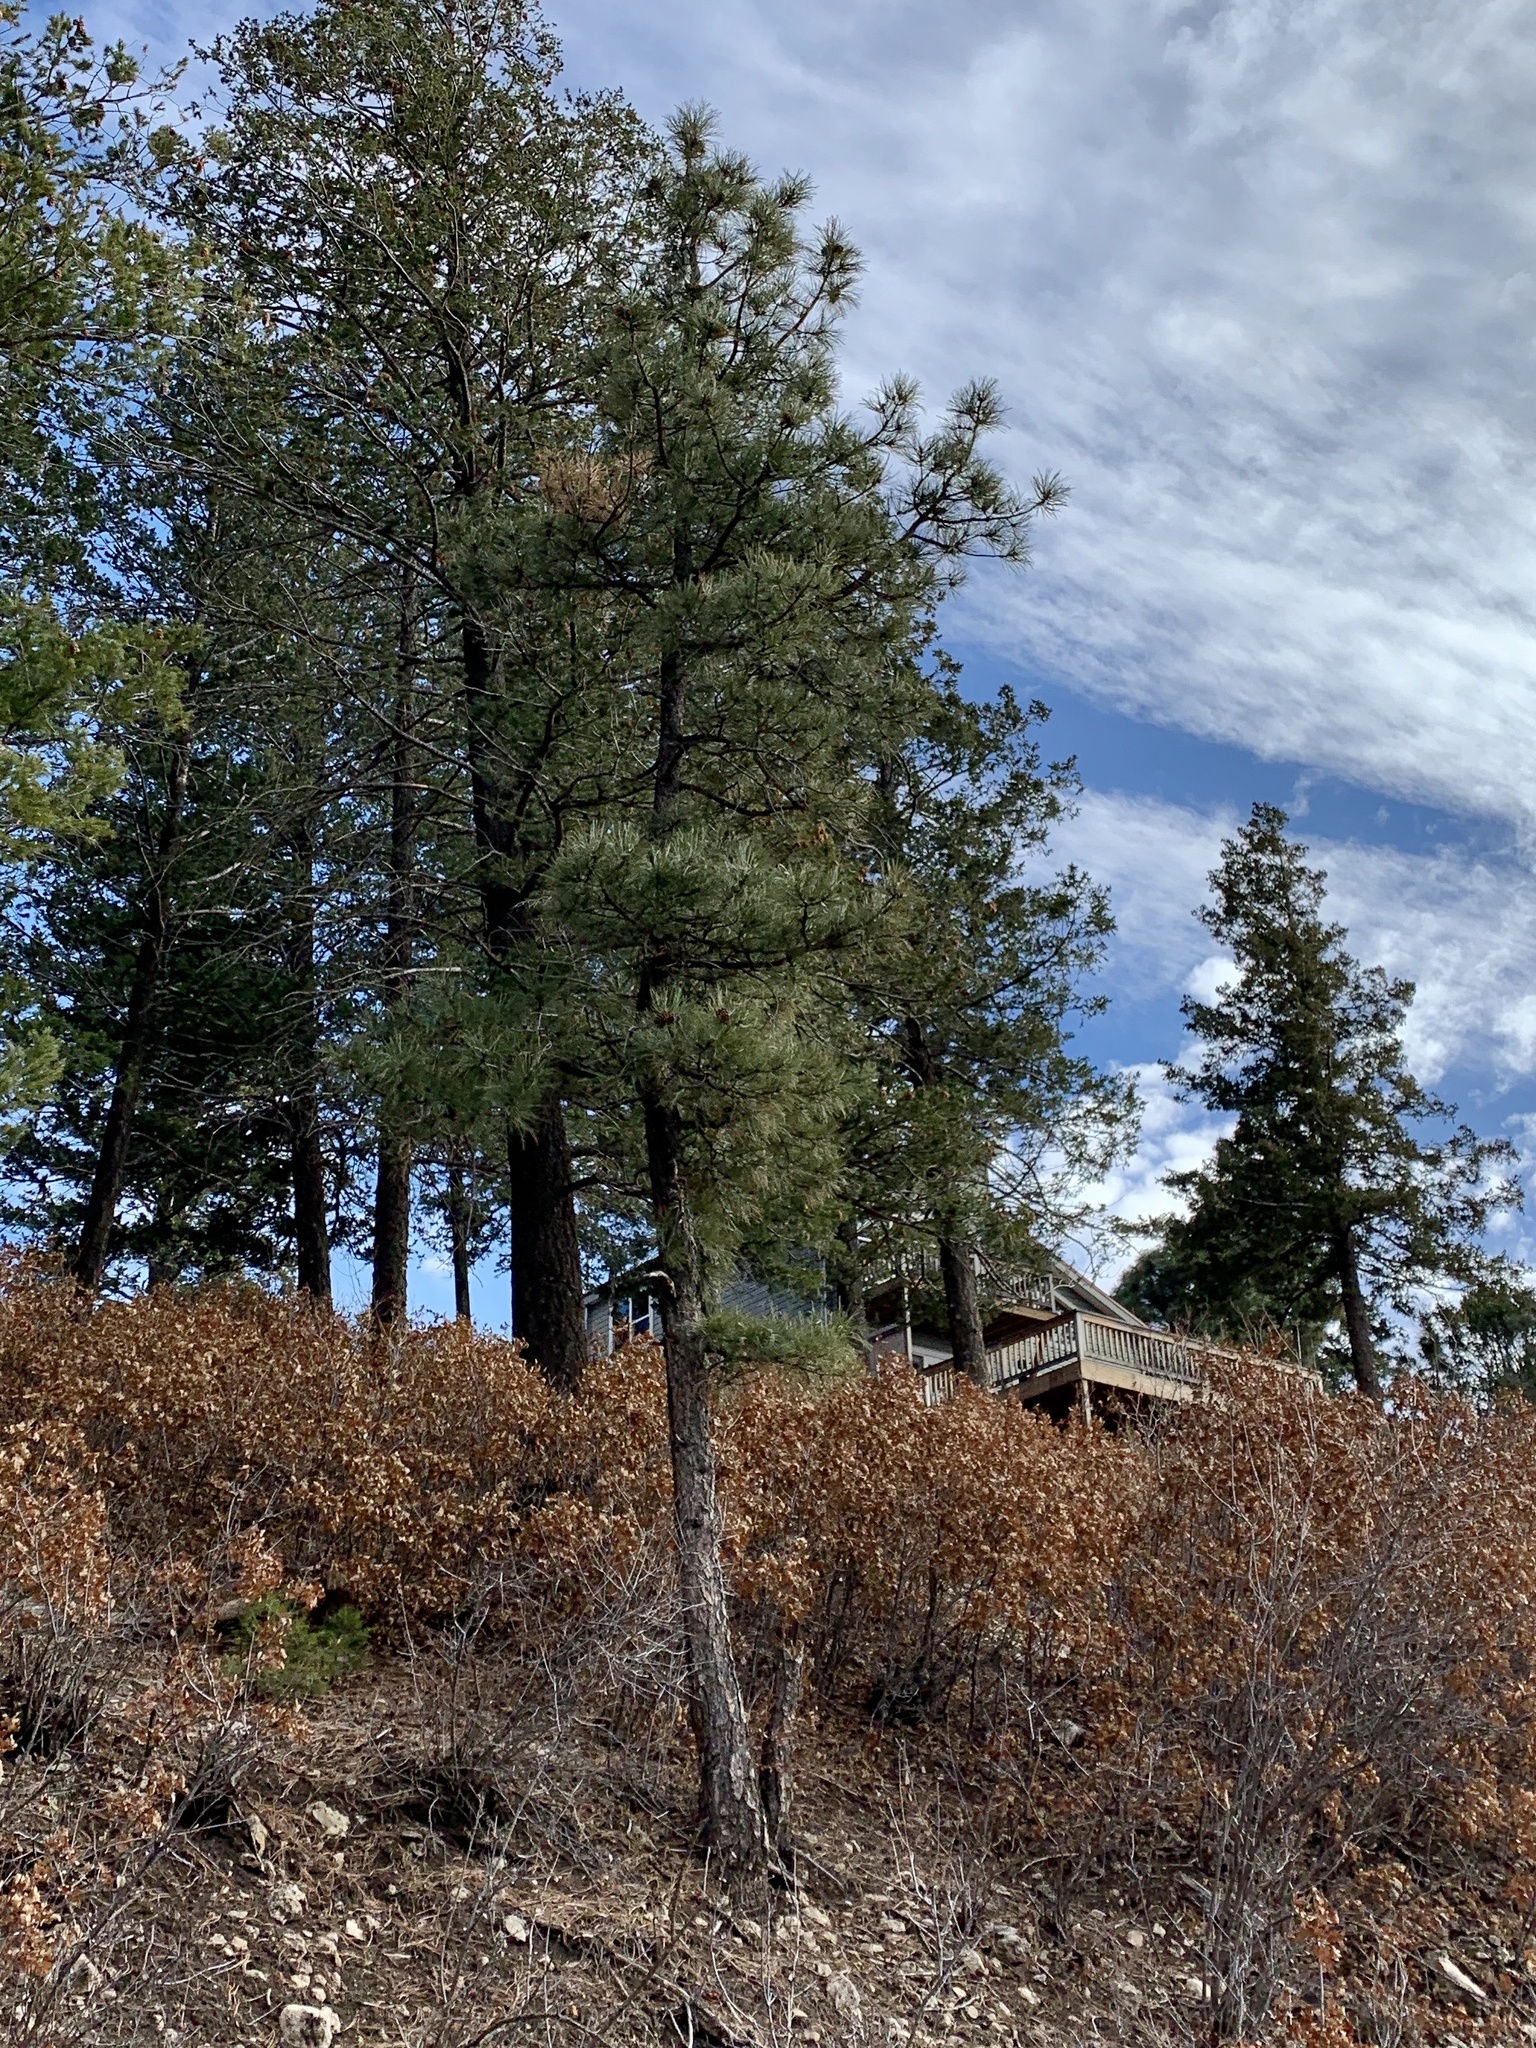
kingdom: Plantae
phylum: Tracheophyta
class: Pinopsida
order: Pinales
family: Pinaceae
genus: Pinus
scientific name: Pinus ponderosa
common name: Western yellow-pine
